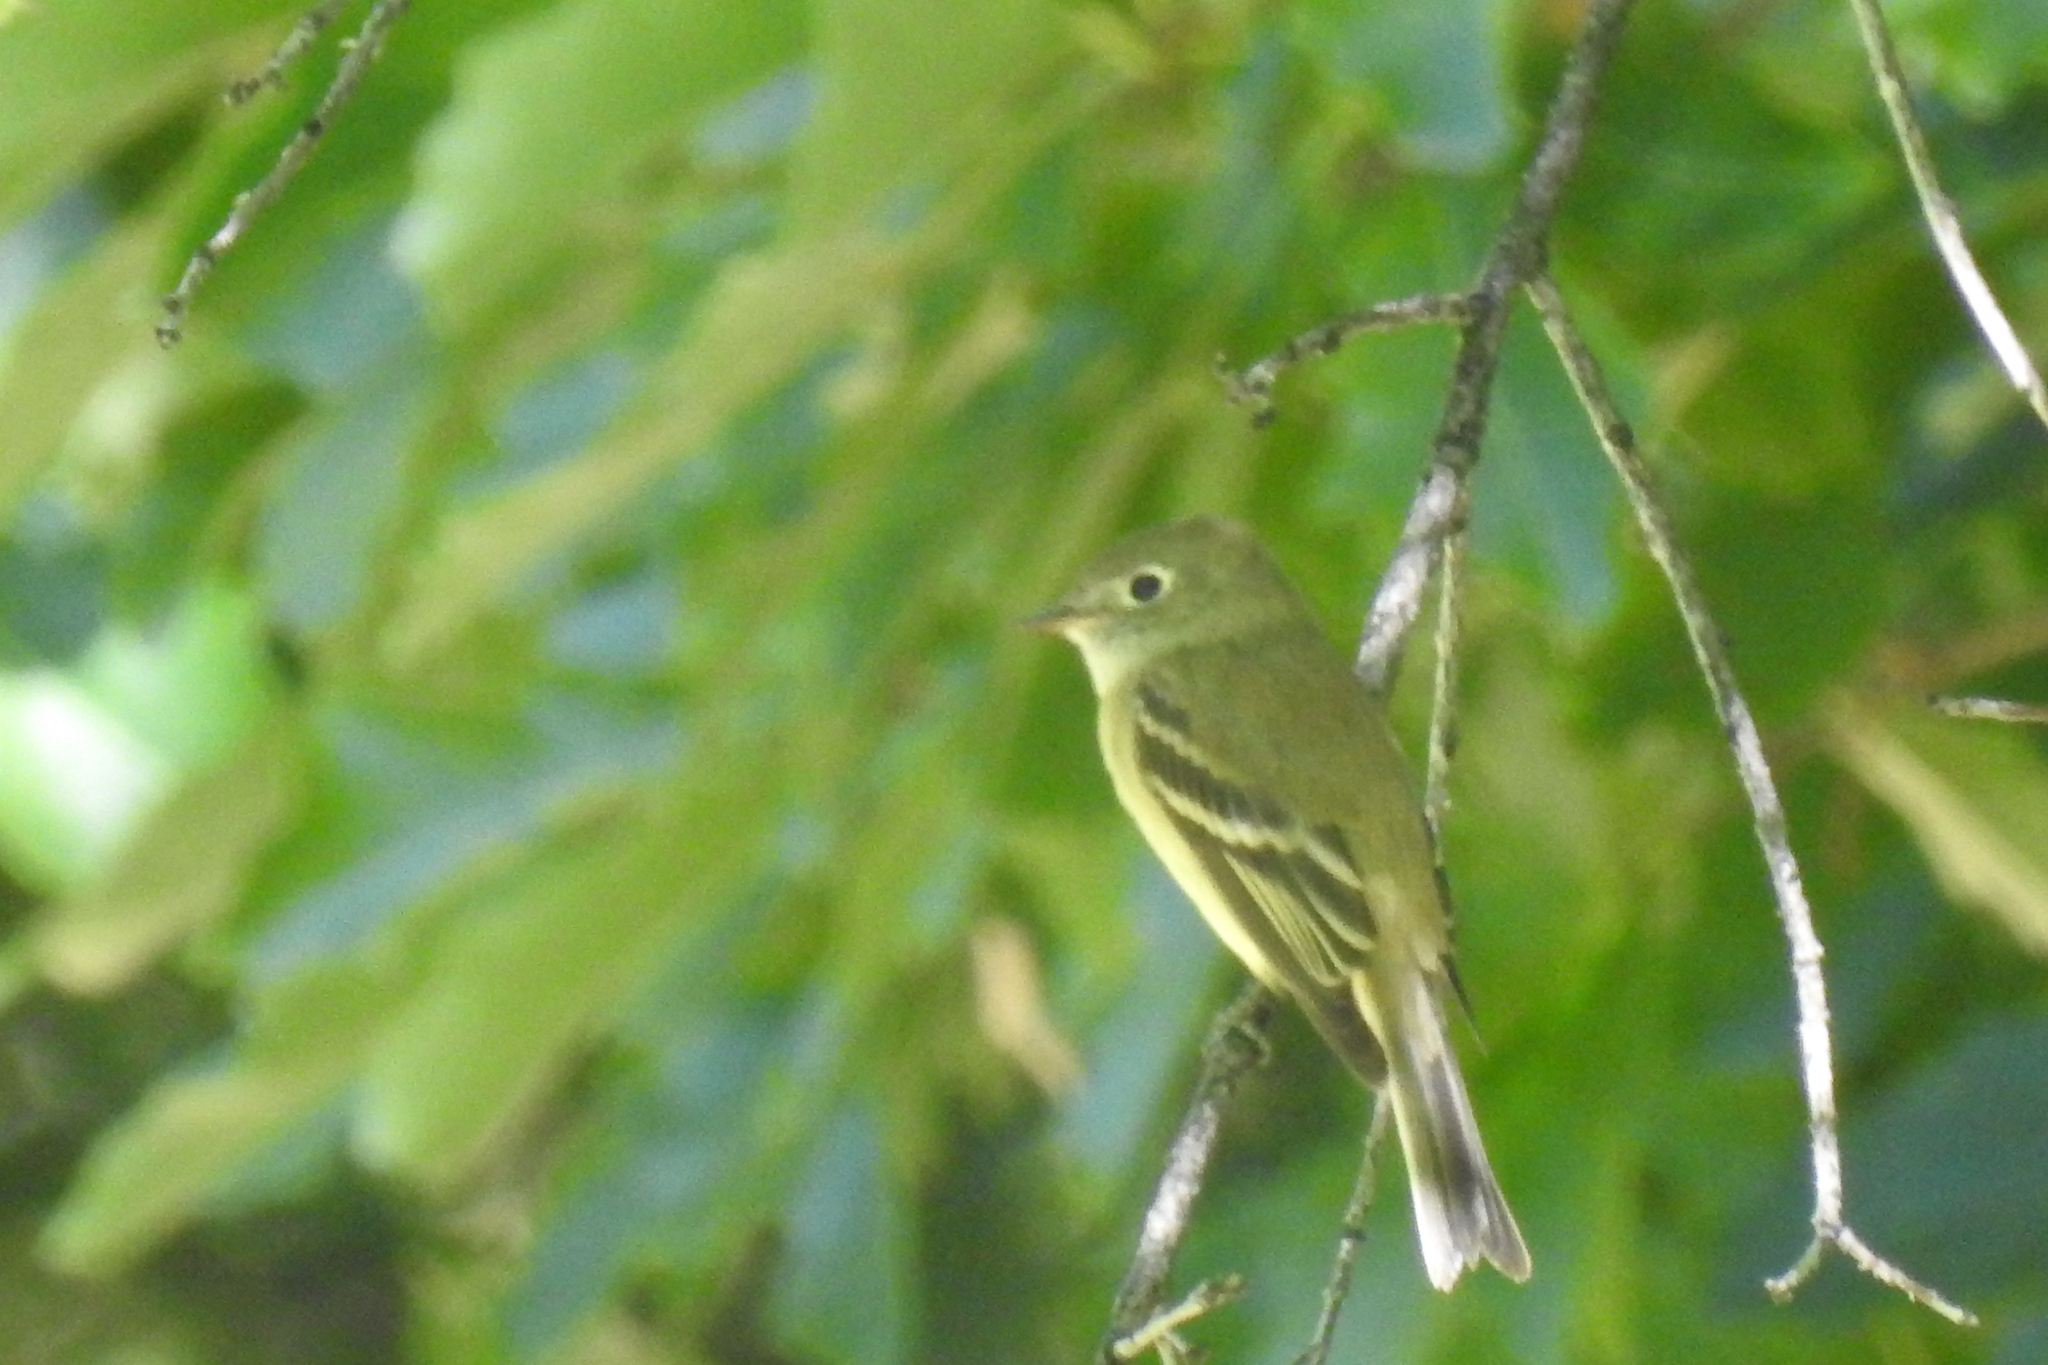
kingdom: Animalia
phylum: Chordata
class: Aves
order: Passeriformes
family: Tyrannidae
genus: Empidonax
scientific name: Empidonax hammondii
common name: Hammond's flycatcher
